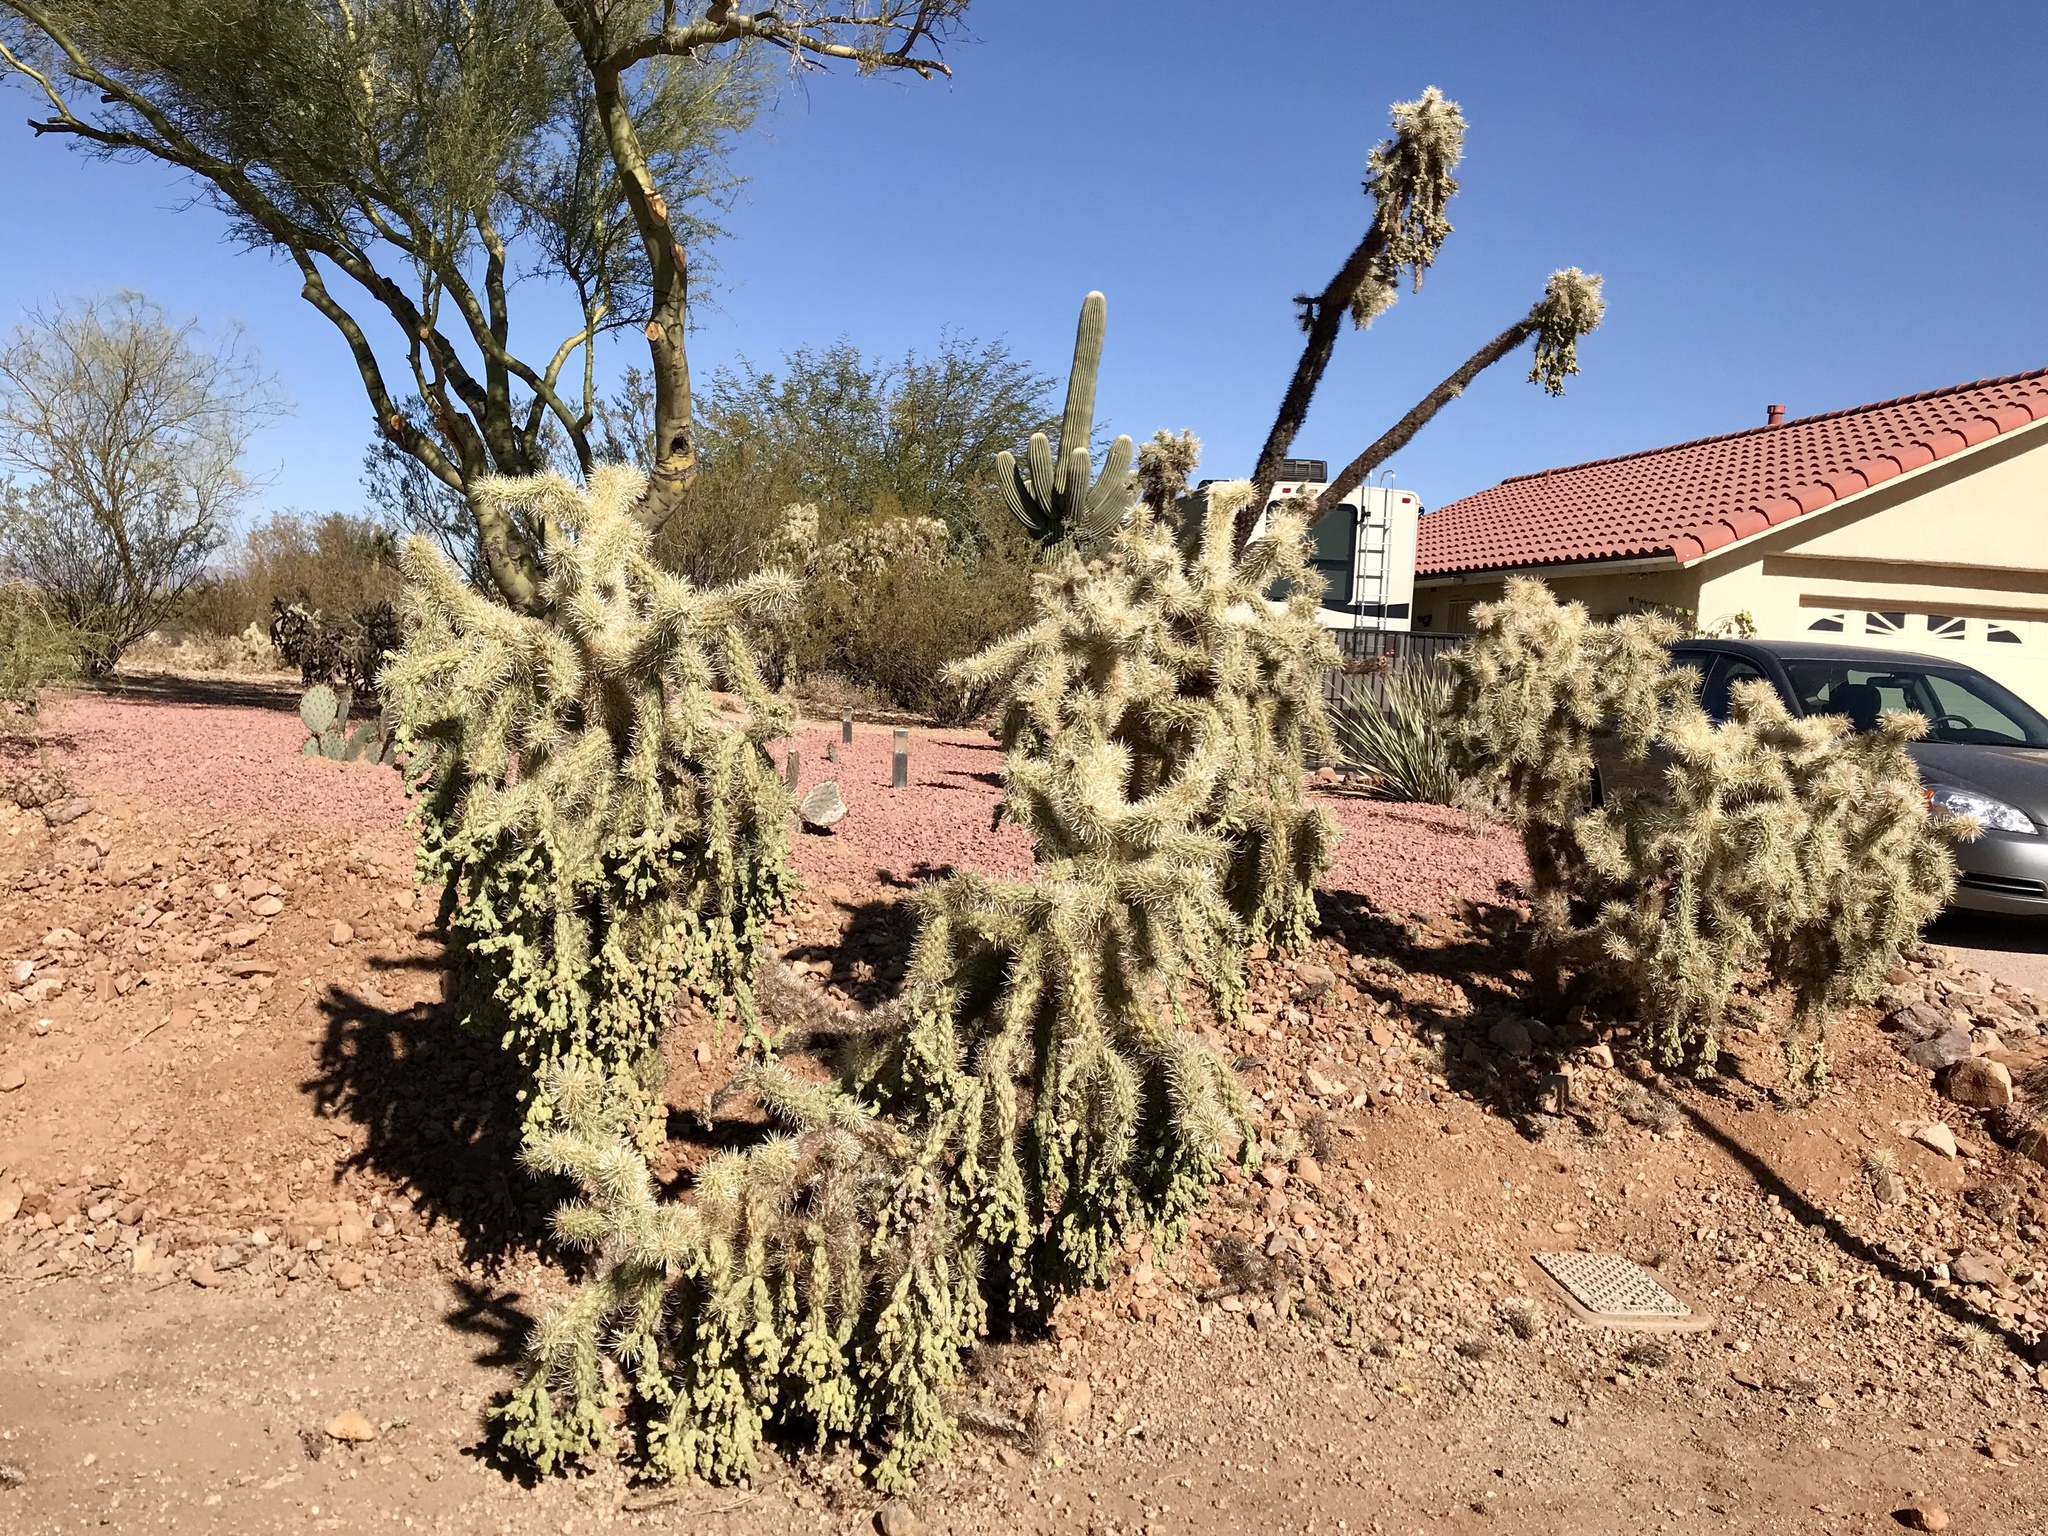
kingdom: Plantae
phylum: Tracheophyta
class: Magnoliopsida
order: Caryophyllales
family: Cactaceae
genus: Cylindropuntia
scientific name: Cylindropuntia fulgida
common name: Jumping cholla
